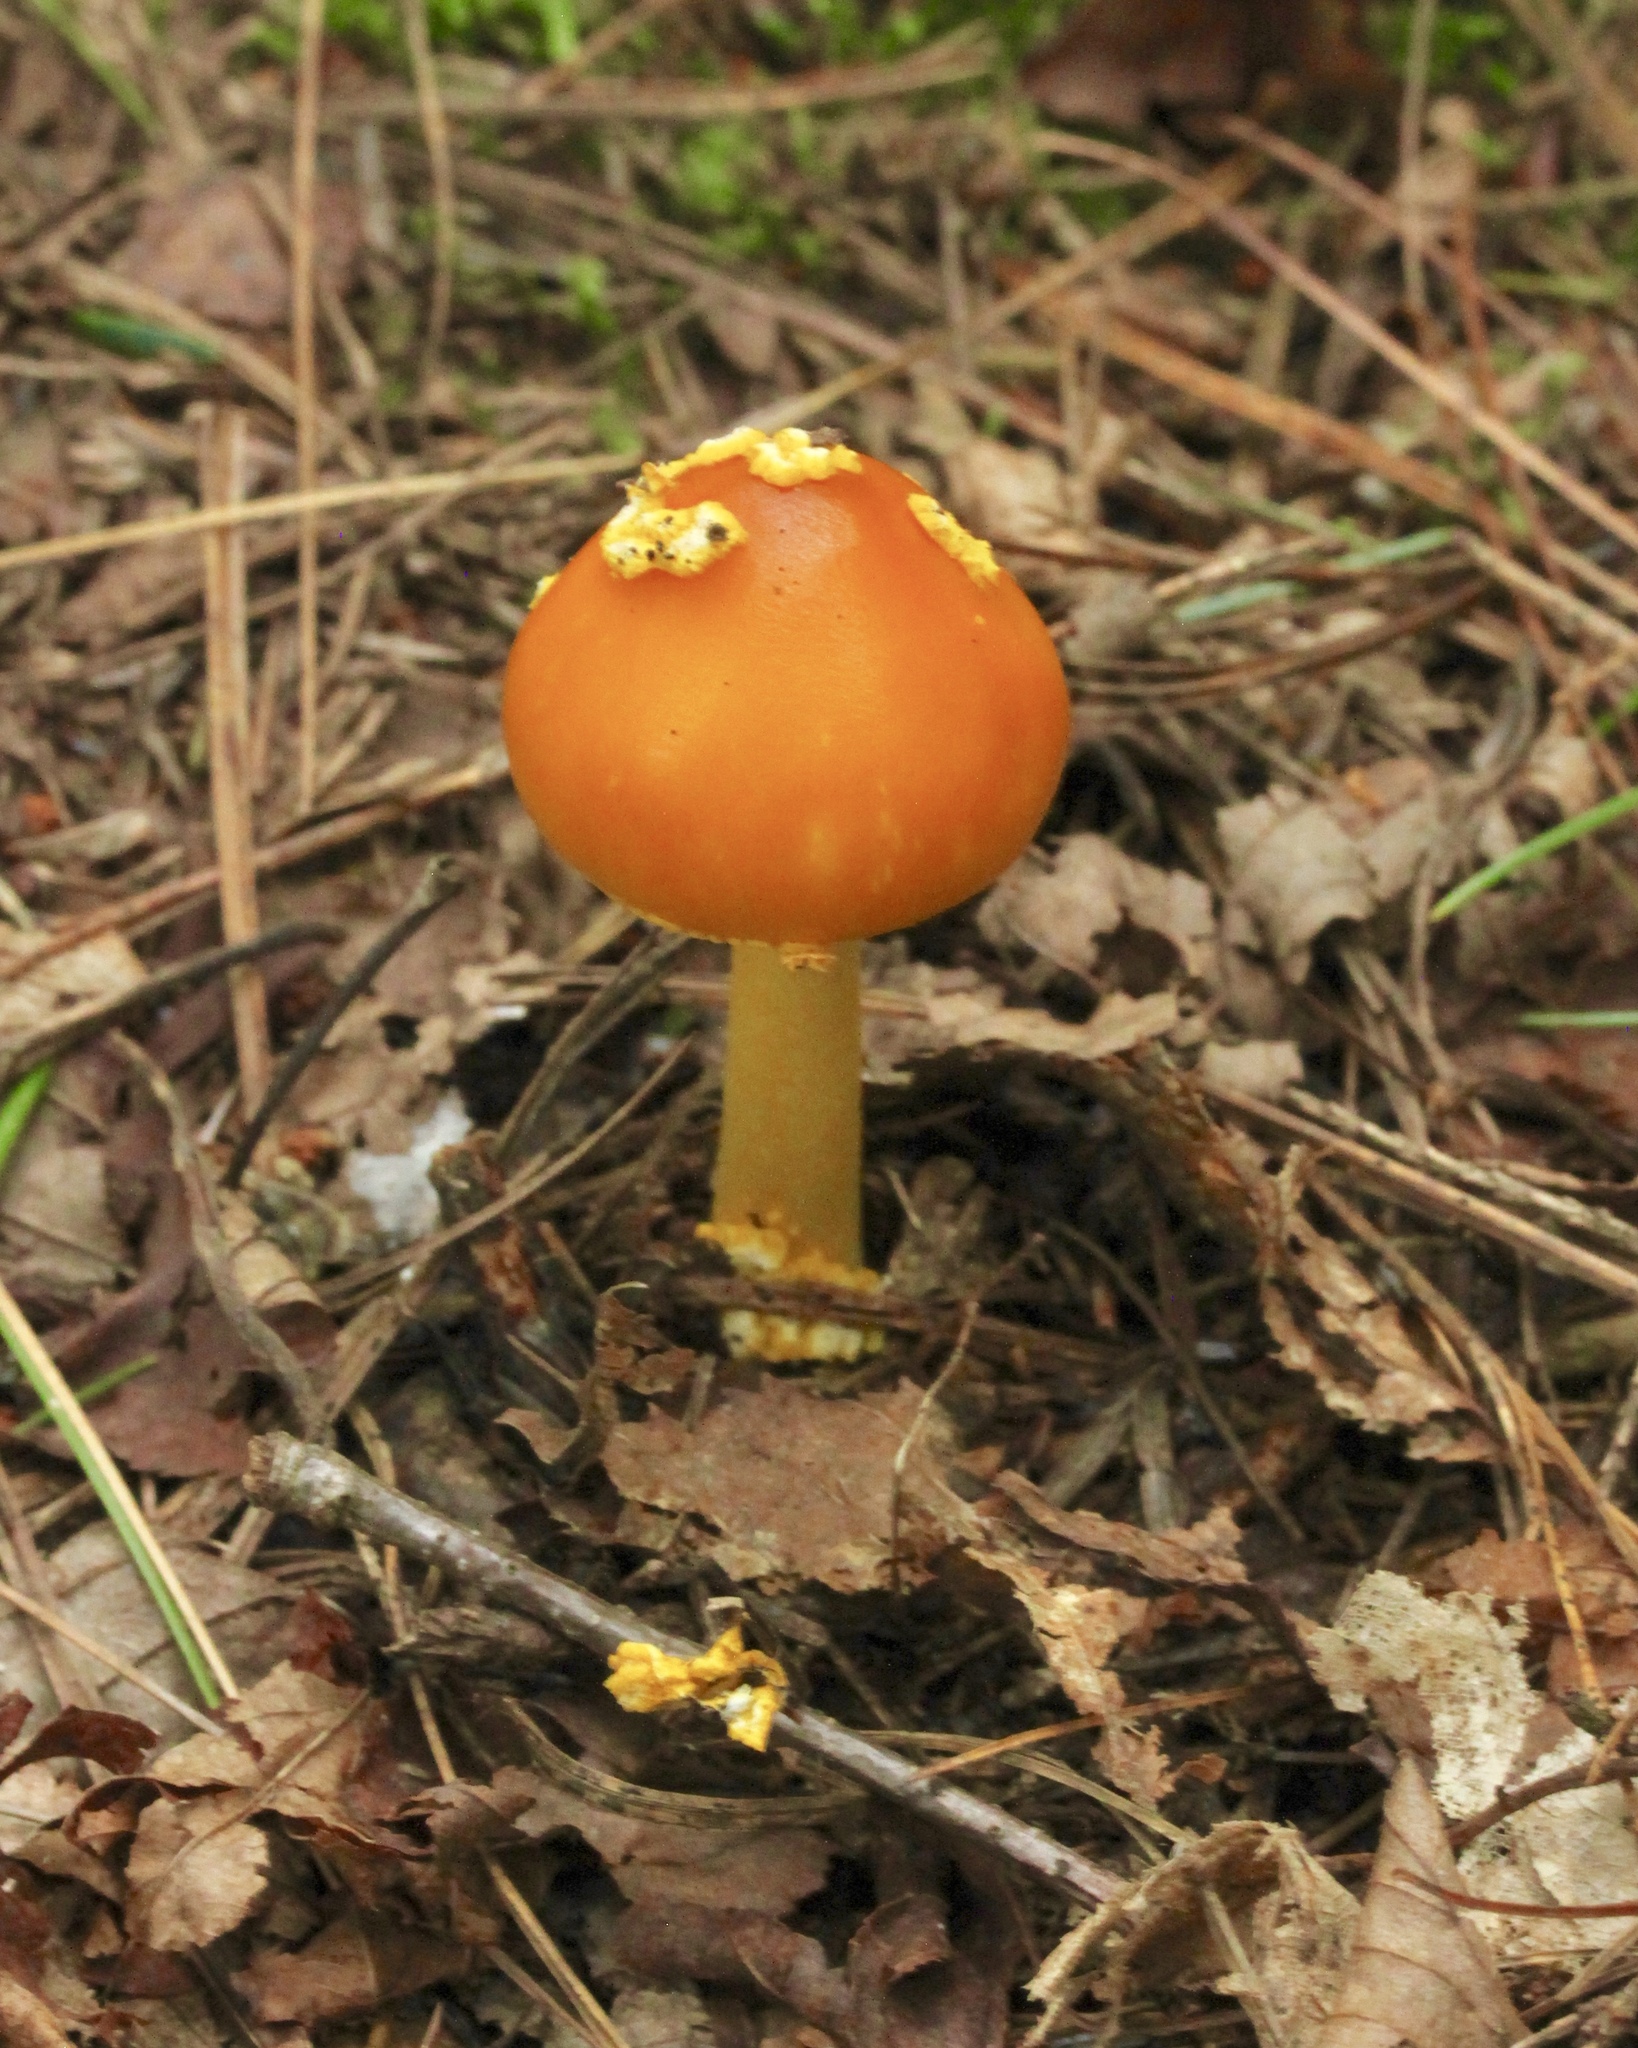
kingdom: Fungi
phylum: Basidiomycota
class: Agaricomycetes
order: Agaricales
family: Amanitaceae
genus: Amanita
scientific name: Amanita flavoconia
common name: Yellow patches
